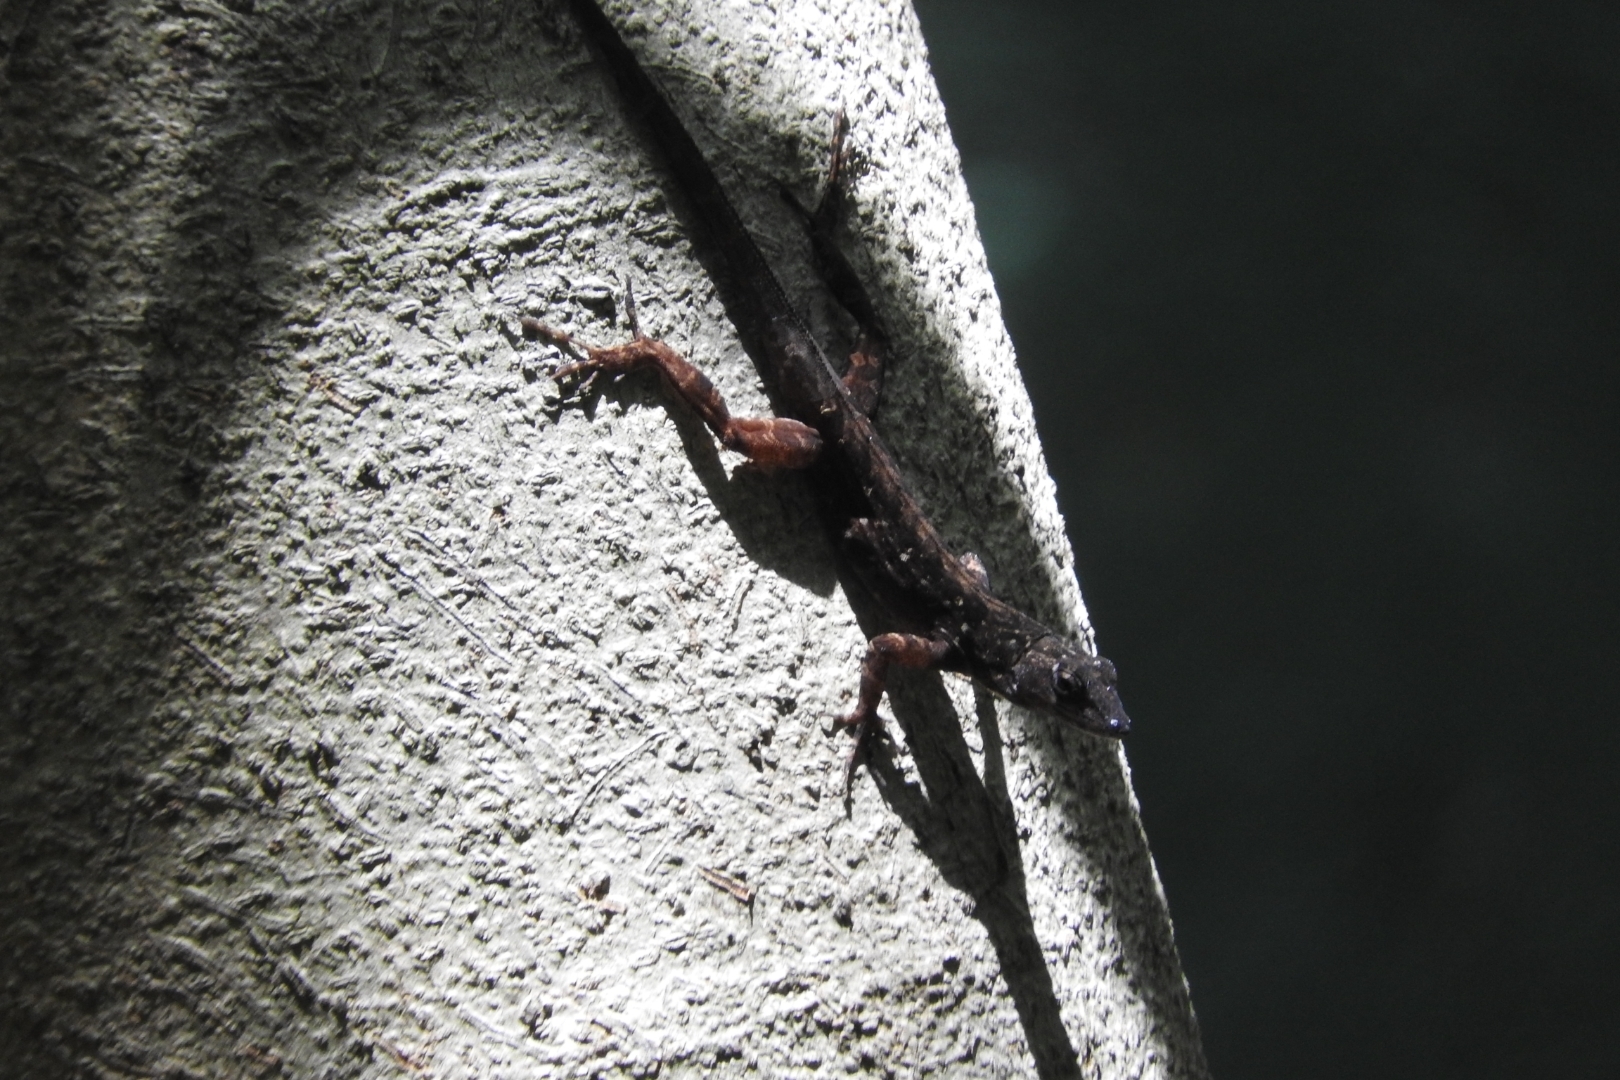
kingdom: Animalia
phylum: Chordata
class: Squamata
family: Dactyloidae
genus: Anolis
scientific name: Anolis sagrei
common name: Brown anole
